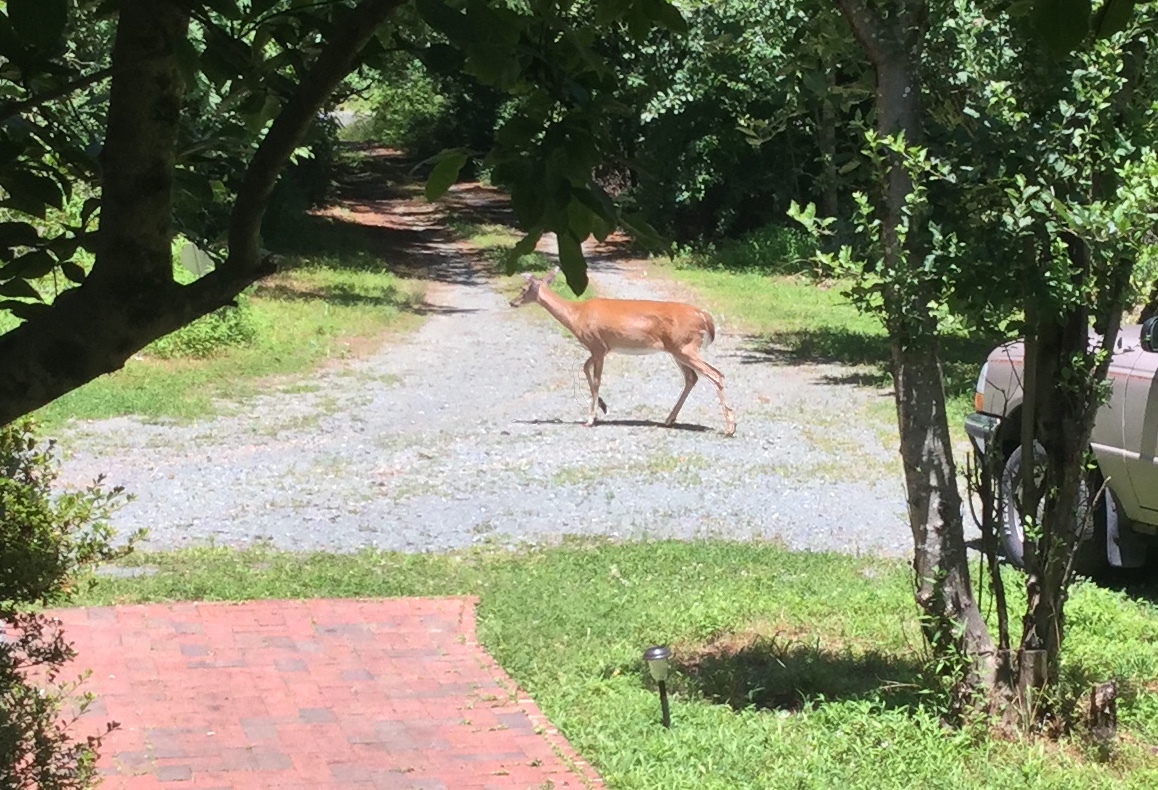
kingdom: Animalia
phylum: Chordata
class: Mammalia
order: Artiodactyla
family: Cervidae
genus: Odocoileus
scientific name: Odocoileus virginianus
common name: White-tailed deer
